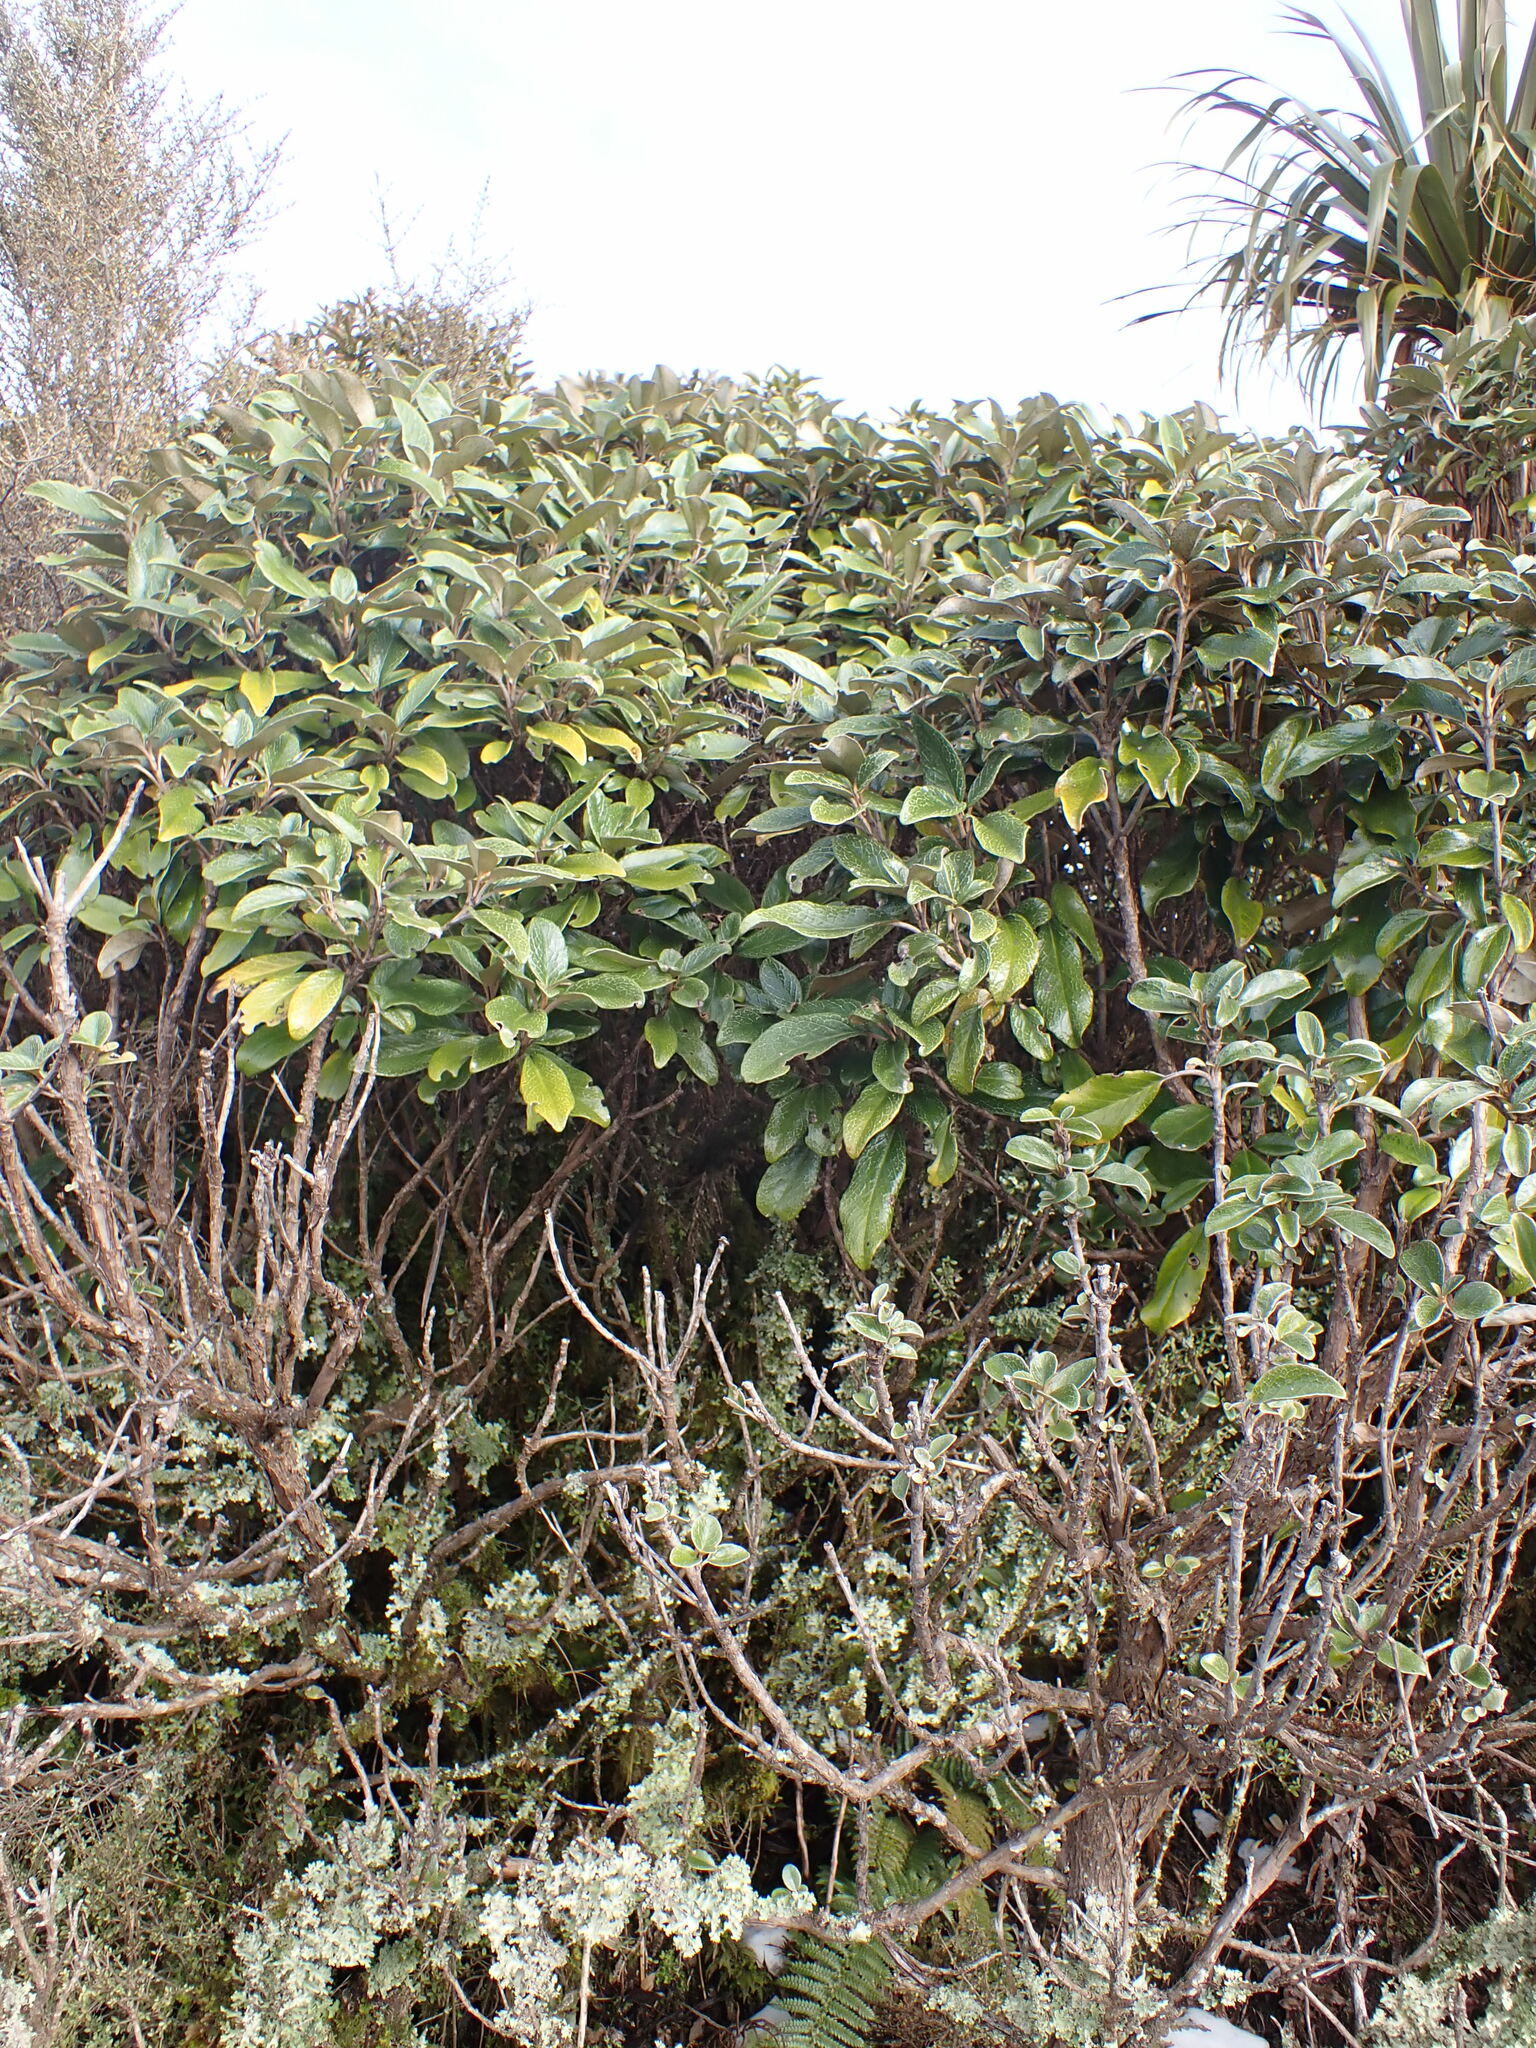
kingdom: Plantae
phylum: Tracheophyta
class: Magnoliopsida
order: Asterales
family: Asteraceae
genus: Brachyglottis
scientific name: Brachyglottis elaeagnifolia
